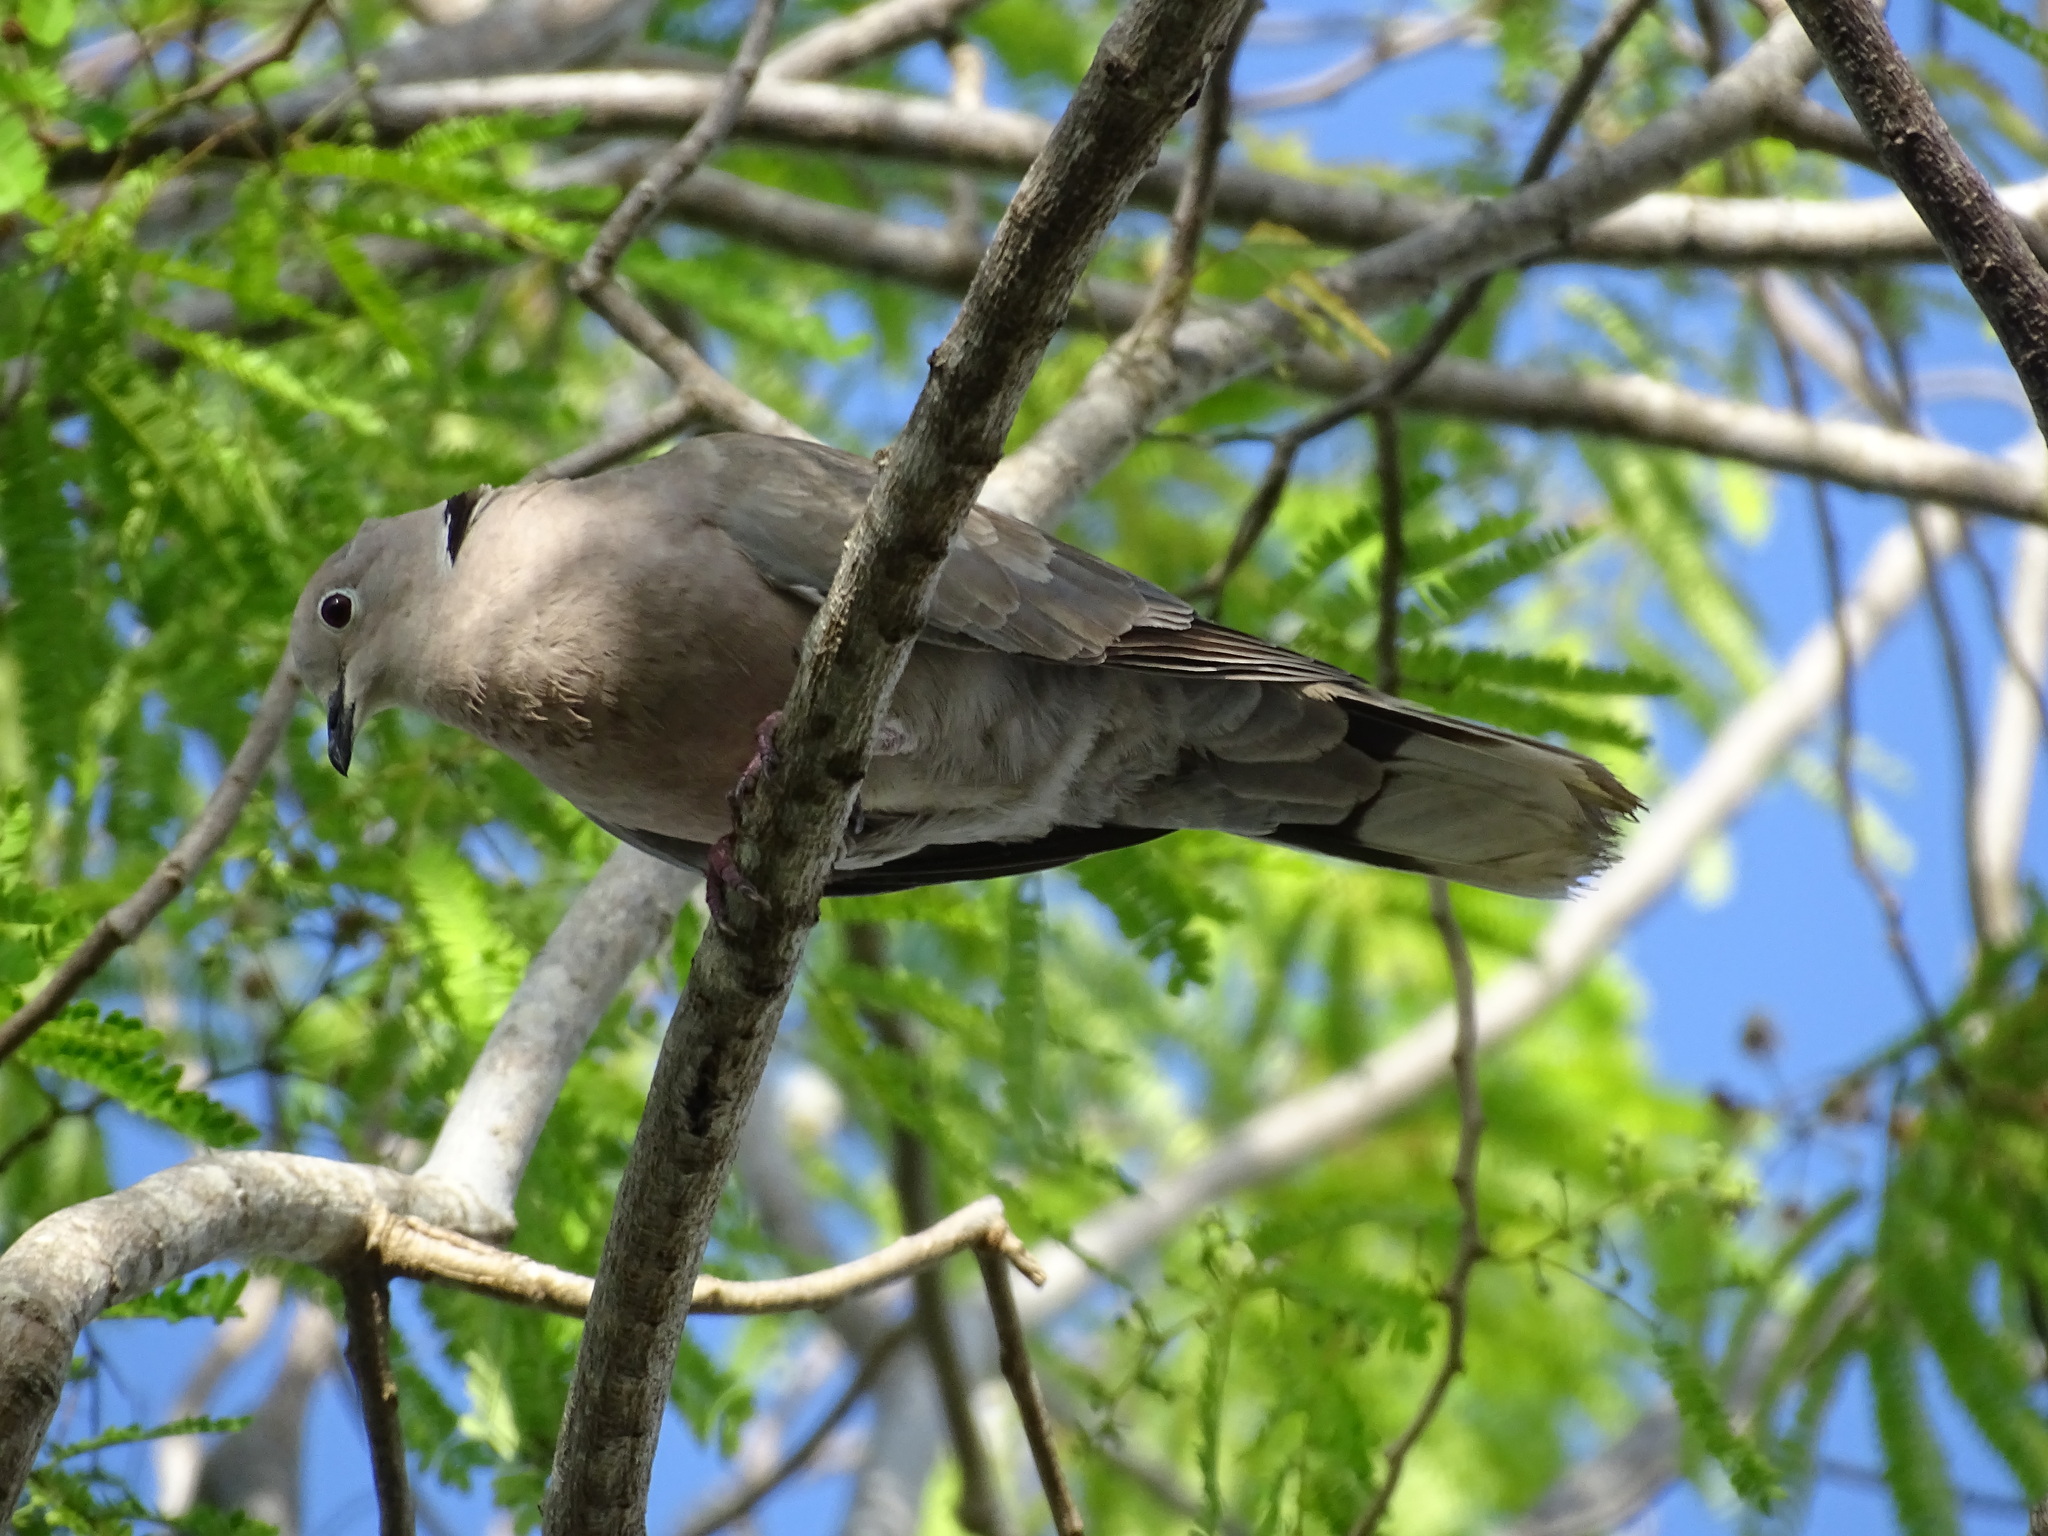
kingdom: Animalia
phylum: Chordata
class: Aves
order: Columbiformes
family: Columbidae
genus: Streptopelia
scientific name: Streptopelia decaocto
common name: Eurasian collared dove
